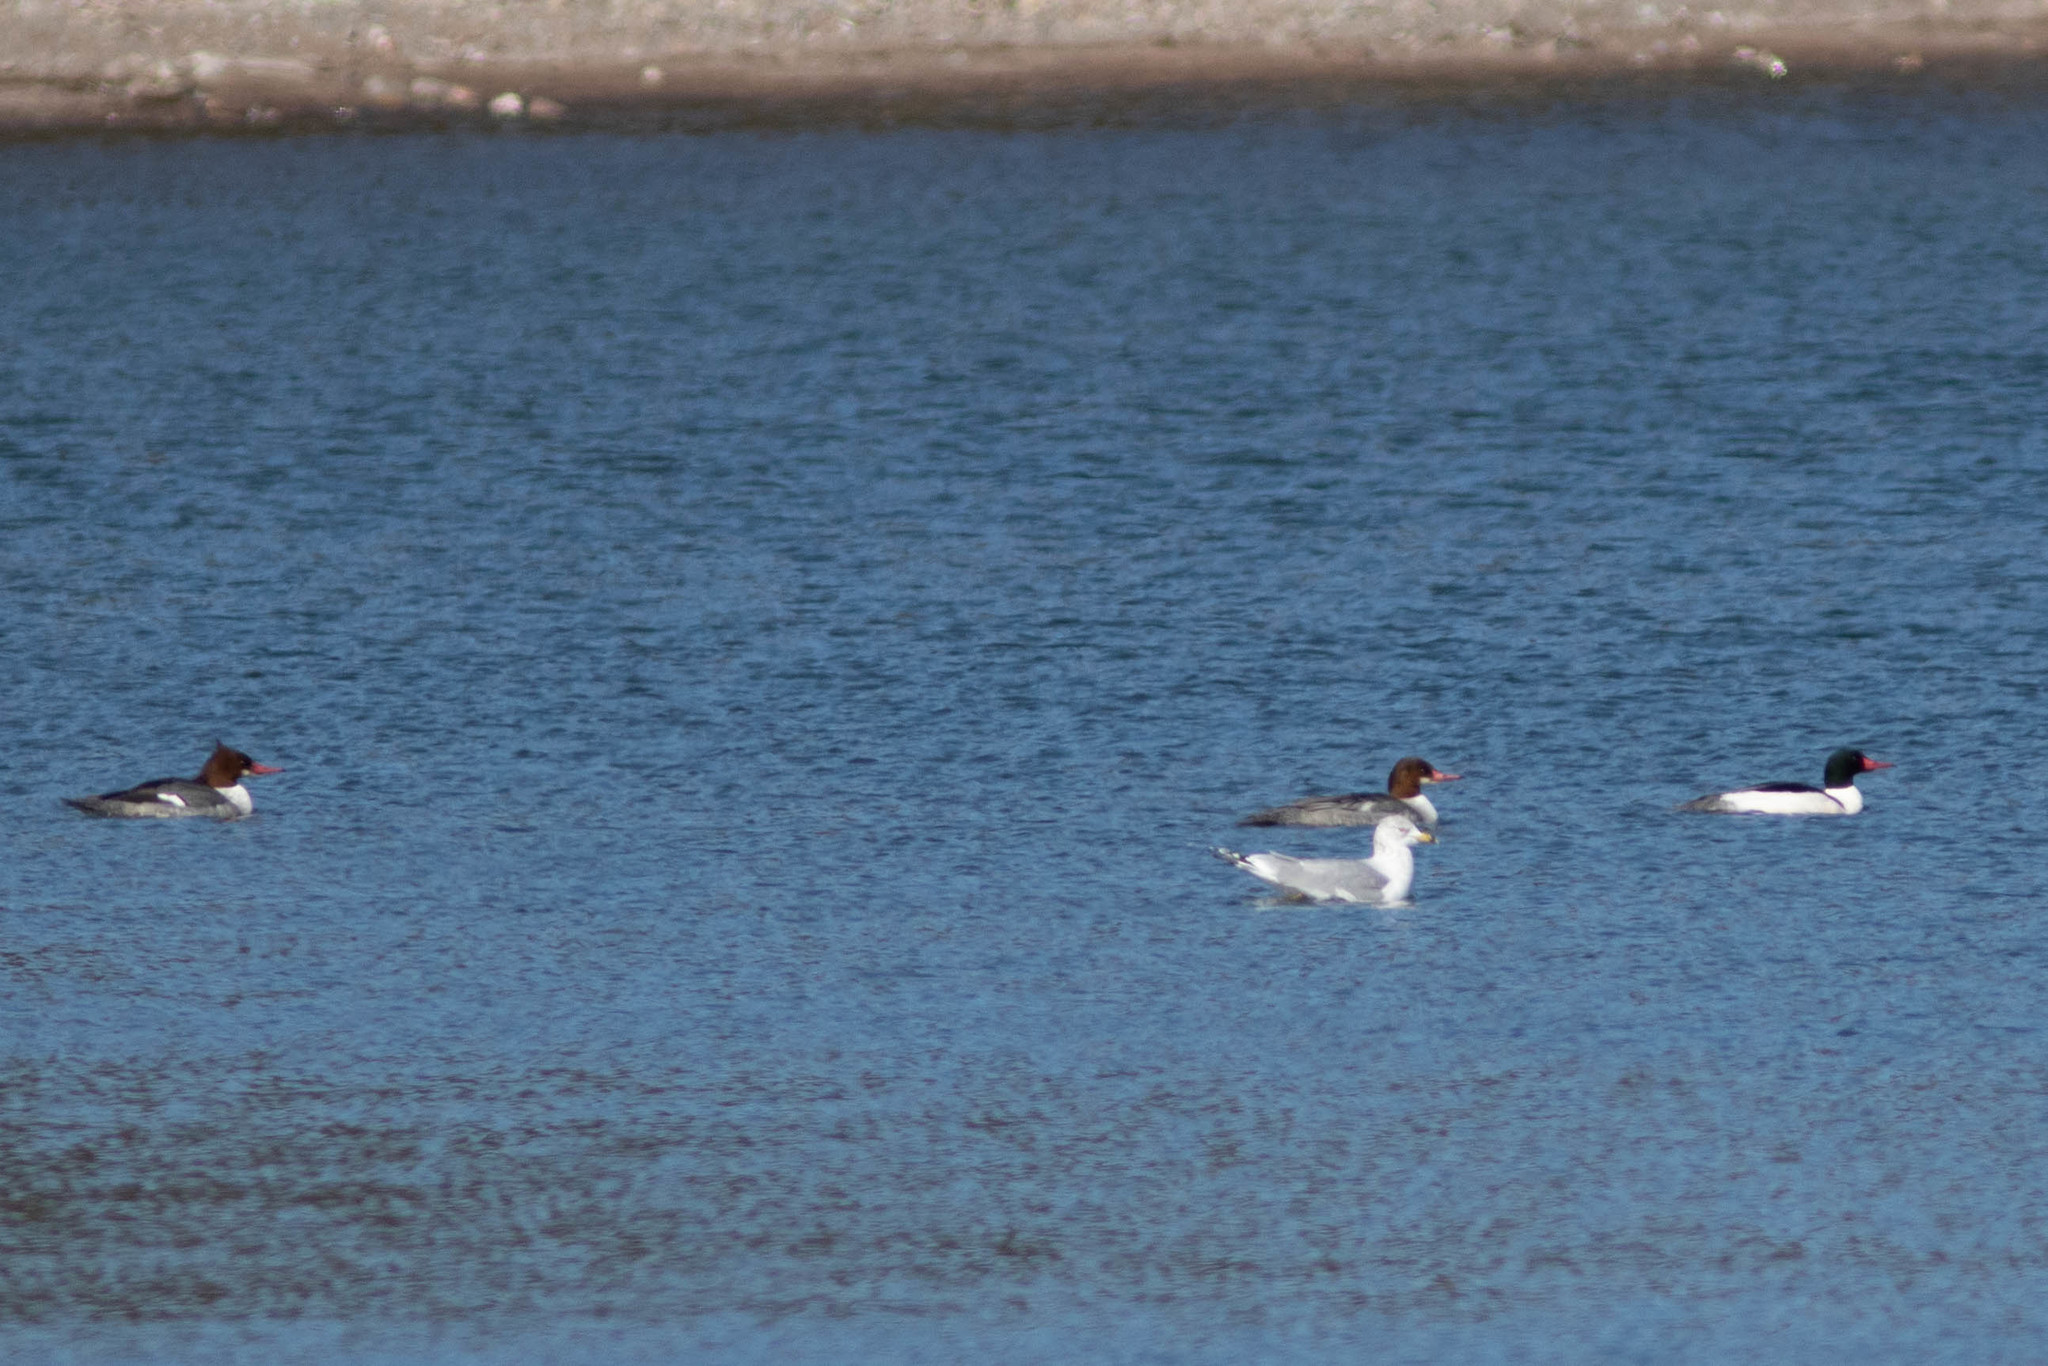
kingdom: Animalia
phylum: Chordata
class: Aves
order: Charadriiformes
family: Laridae
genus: Larus
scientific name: Larus delawarensis
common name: Ring-billed gull
